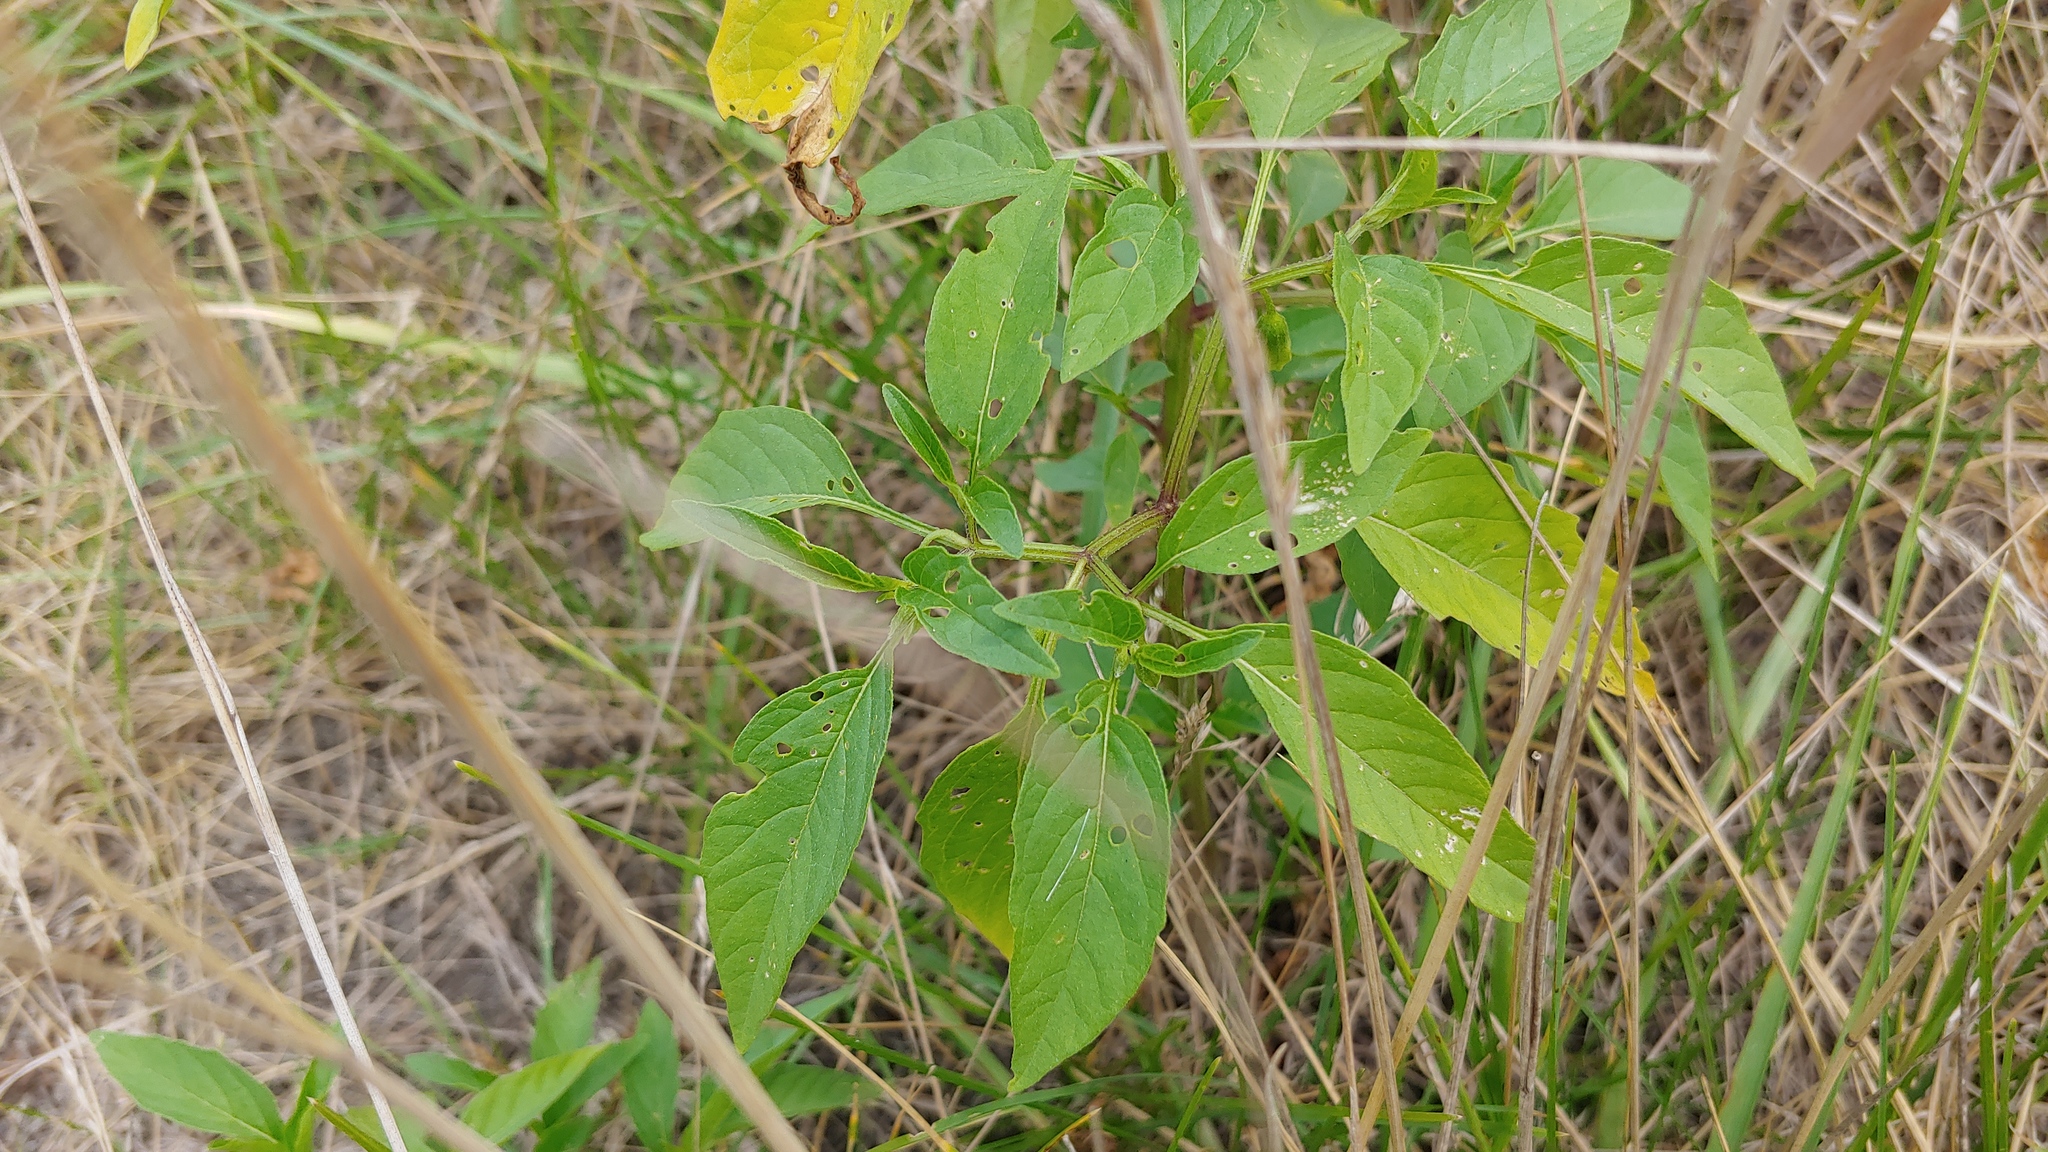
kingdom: Plantae
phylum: Tracheophyta
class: Magnoliopsida
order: Solanales
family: Solanaceae
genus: Physalis
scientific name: Physalis longifolia
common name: Common ground-cherry
